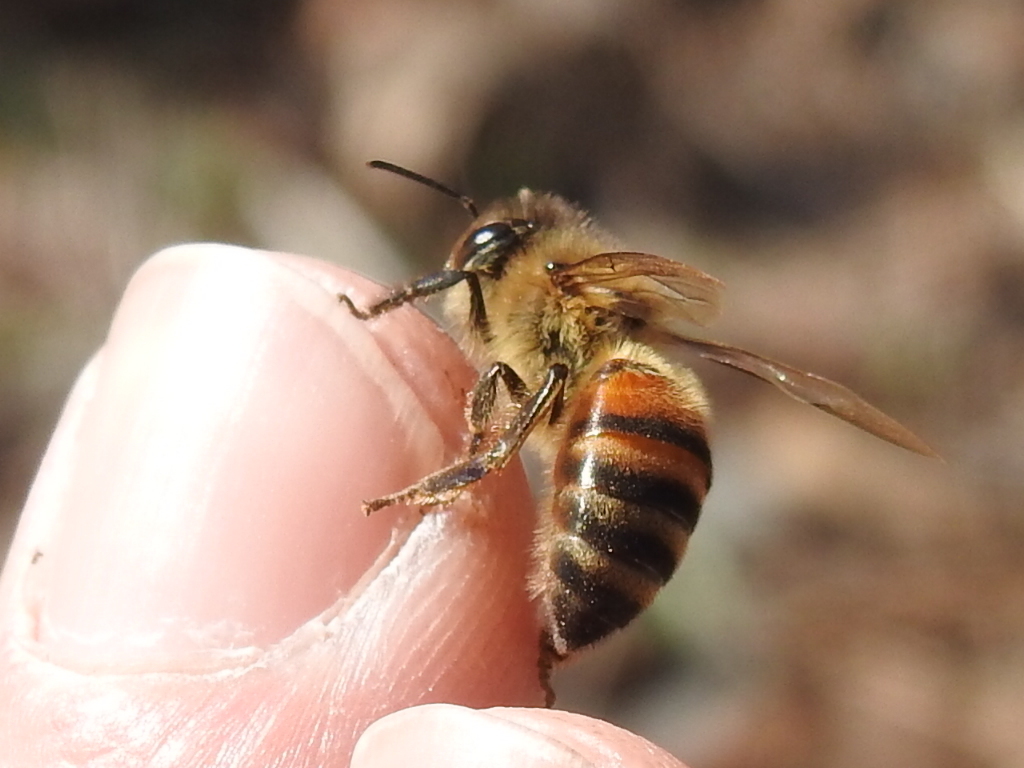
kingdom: Animalia
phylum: Arthropoda
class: Insecta
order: Hymenoptera
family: Apidae
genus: Apis
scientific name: Apis mellifera
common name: Honey bee
